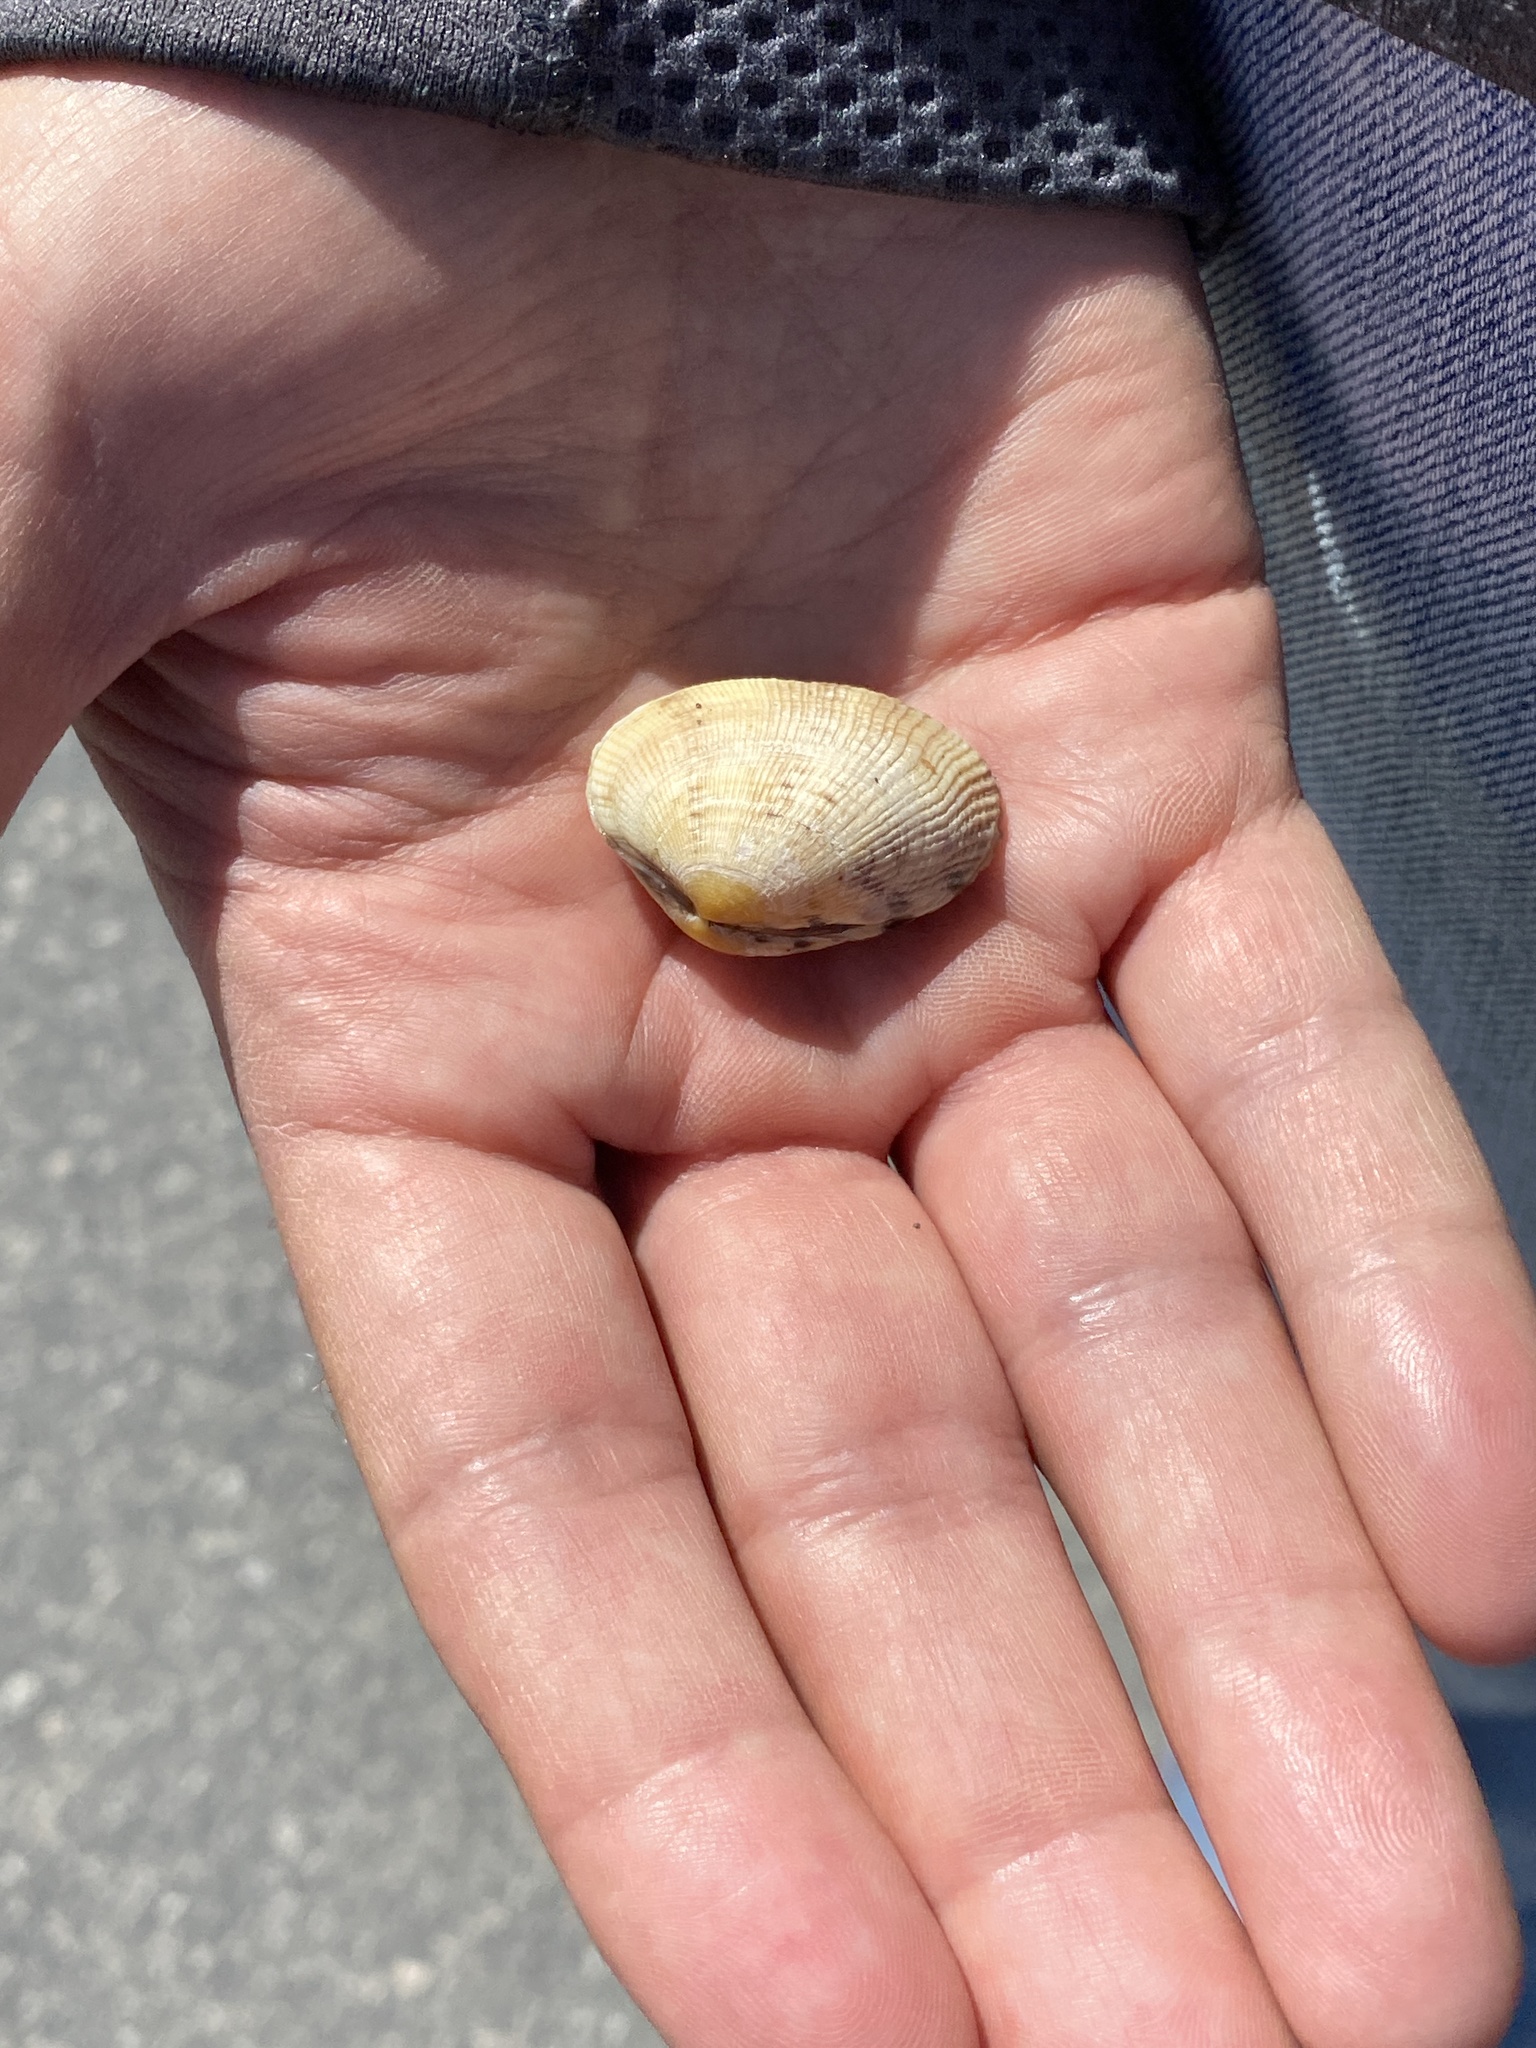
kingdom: Animalia
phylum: Mollusca
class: Bivalvia
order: Venerida
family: Veneridae
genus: Ruditapes
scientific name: Ruditapes philippinarum
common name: Manila clam
